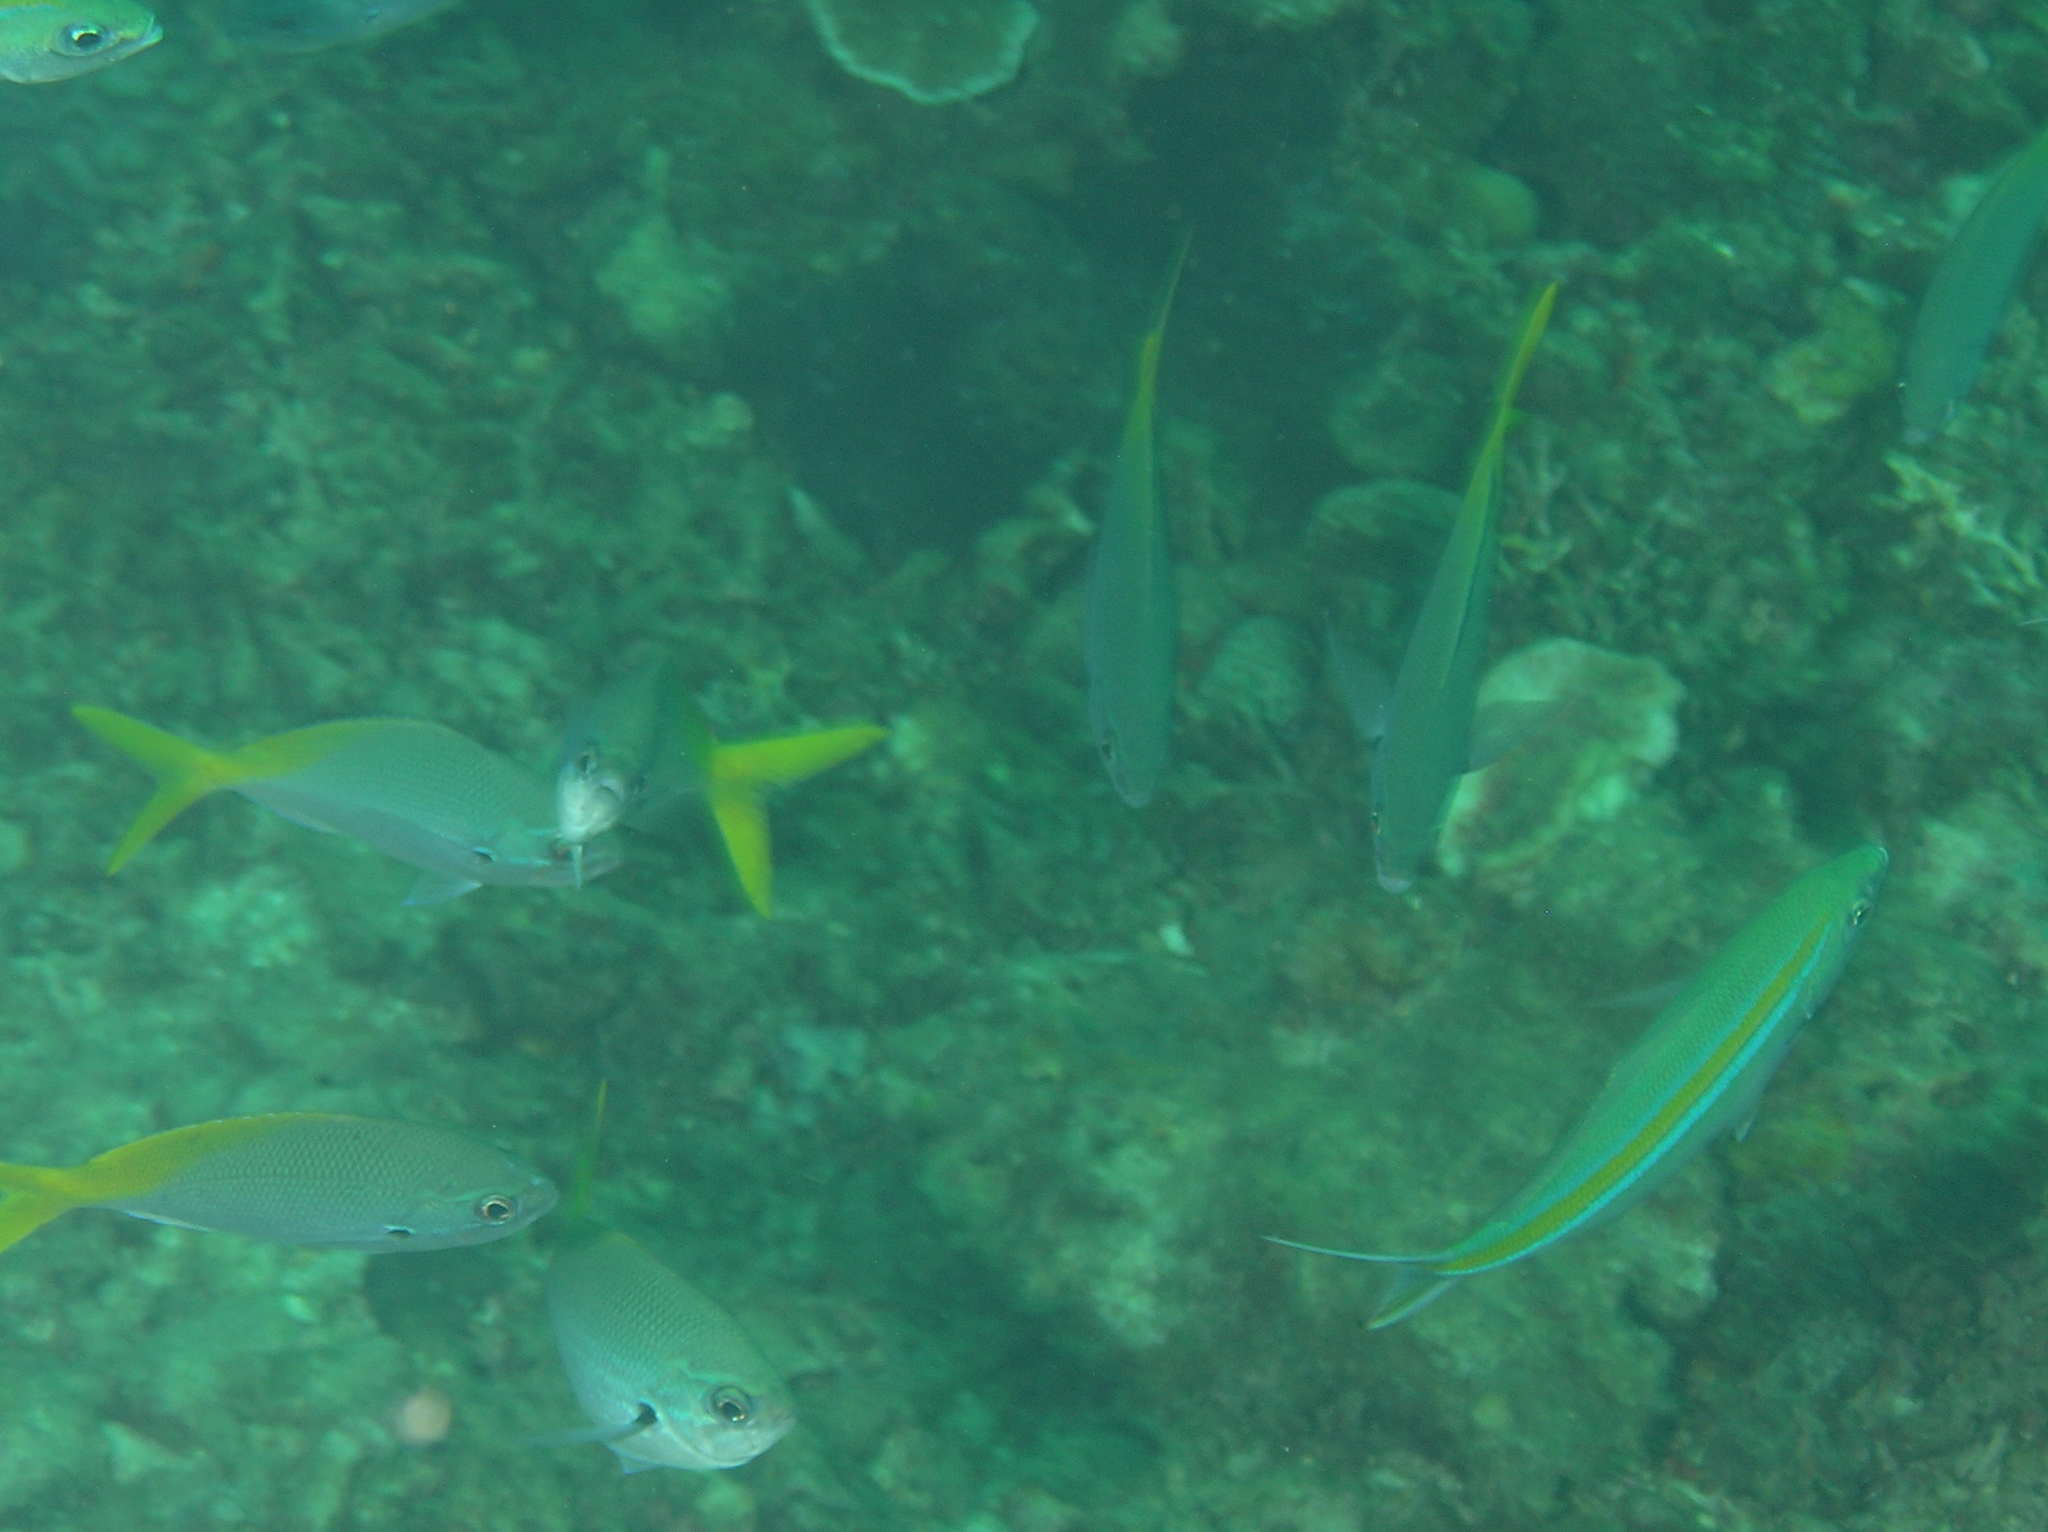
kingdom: Animalia
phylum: Chordata
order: Perciformes
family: Caesionidae
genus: Caesio
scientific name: Caesio cuning
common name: Red-bellied fusilier
